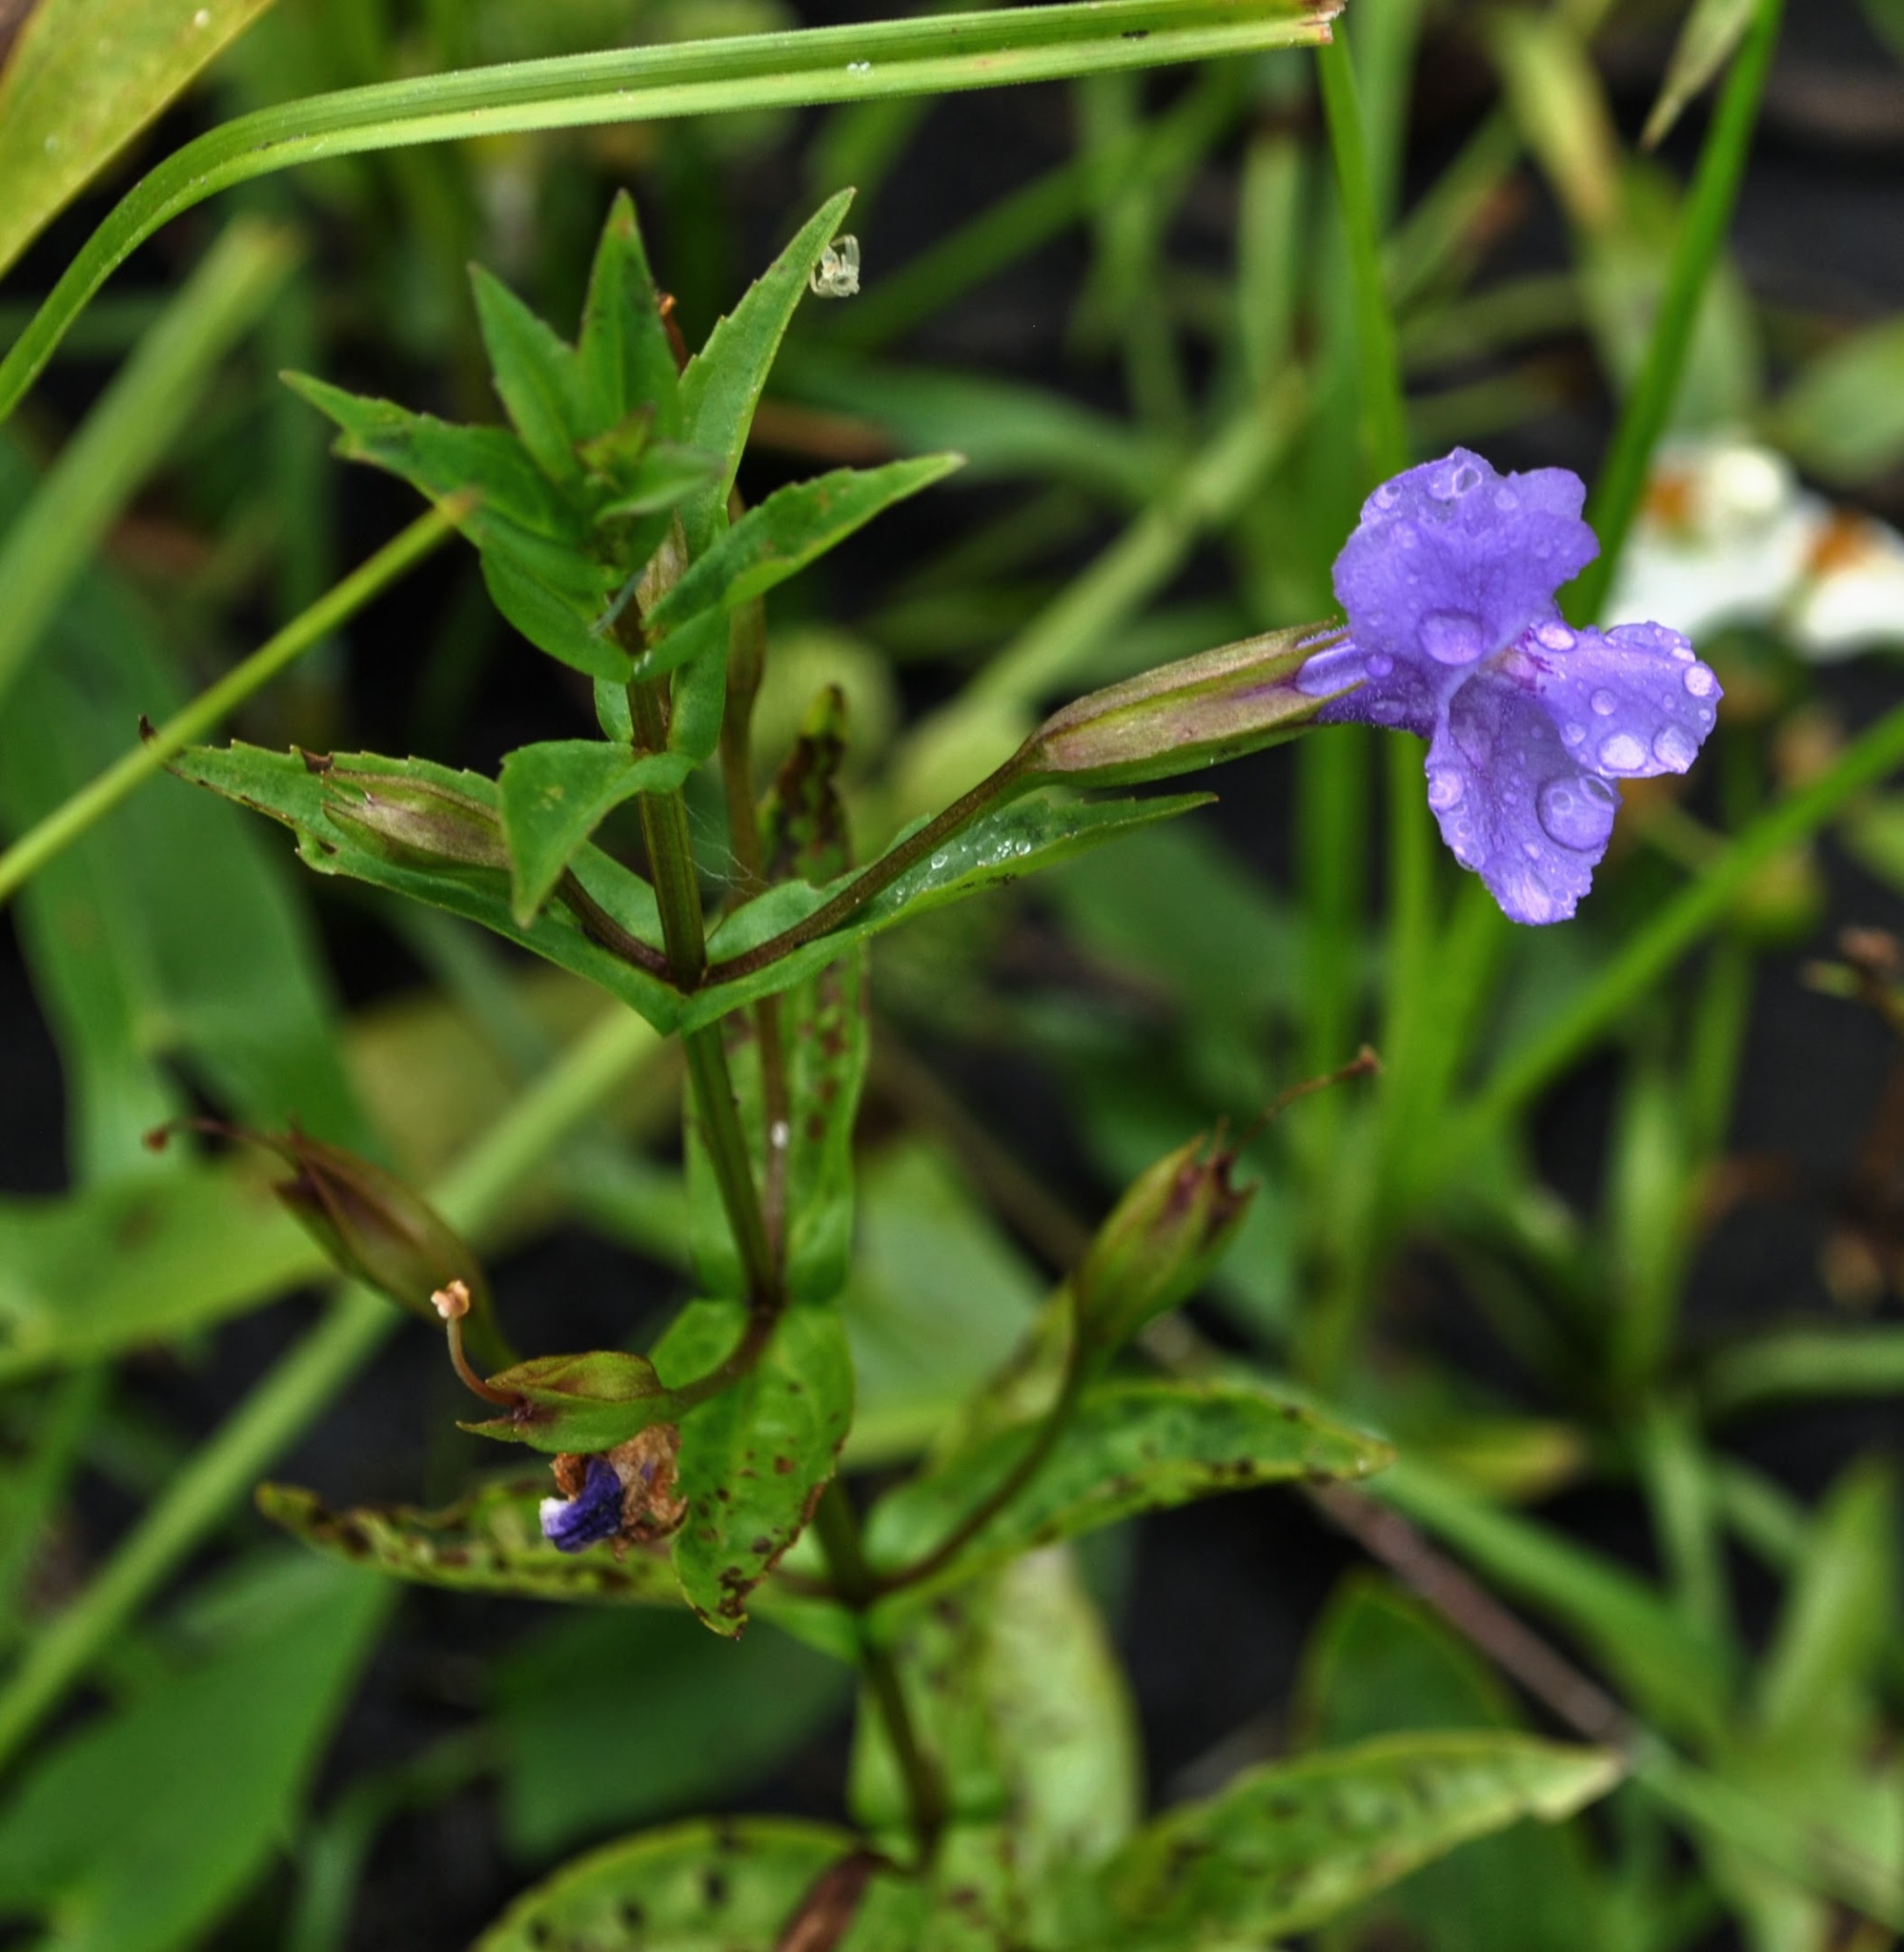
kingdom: Plantae
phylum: Tracheophyta
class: Magnoliopsida
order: Lamiales
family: Phrymaceae
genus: Mimulus
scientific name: Mimulus ringens
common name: Allegheny monkeyflower
